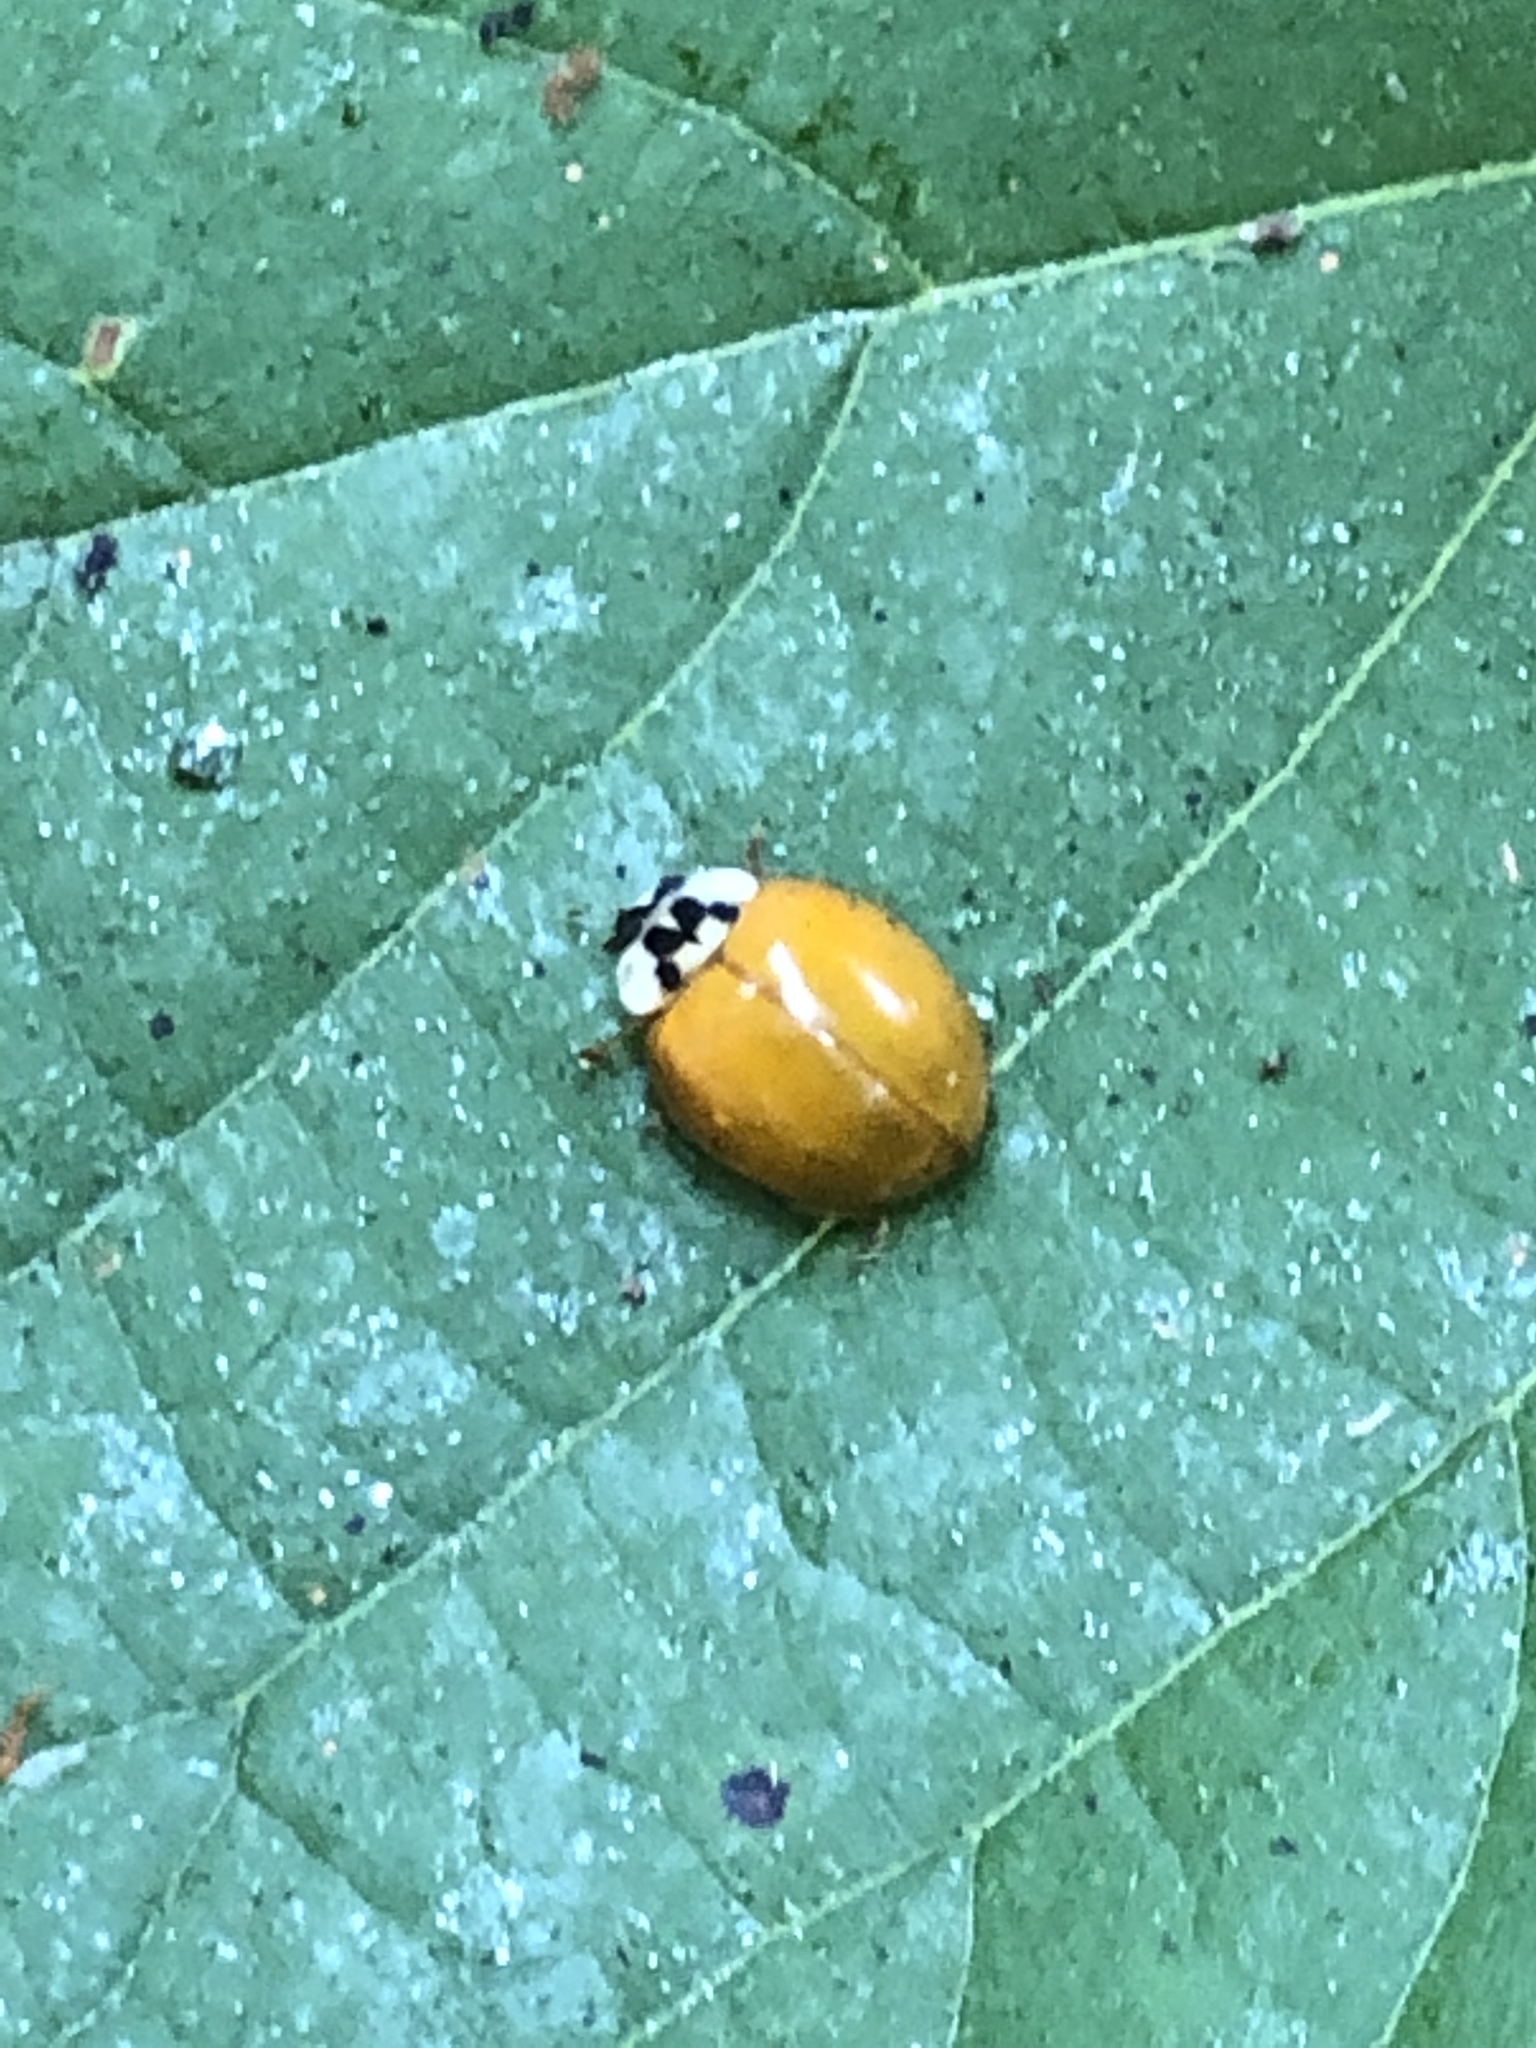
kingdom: Animalia
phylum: Arthropoda
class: Insecta
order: Coleoptera
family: Coccinellidae
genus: Harmonia
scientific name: Harmonia axyridis
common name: Harlequin ladybird
